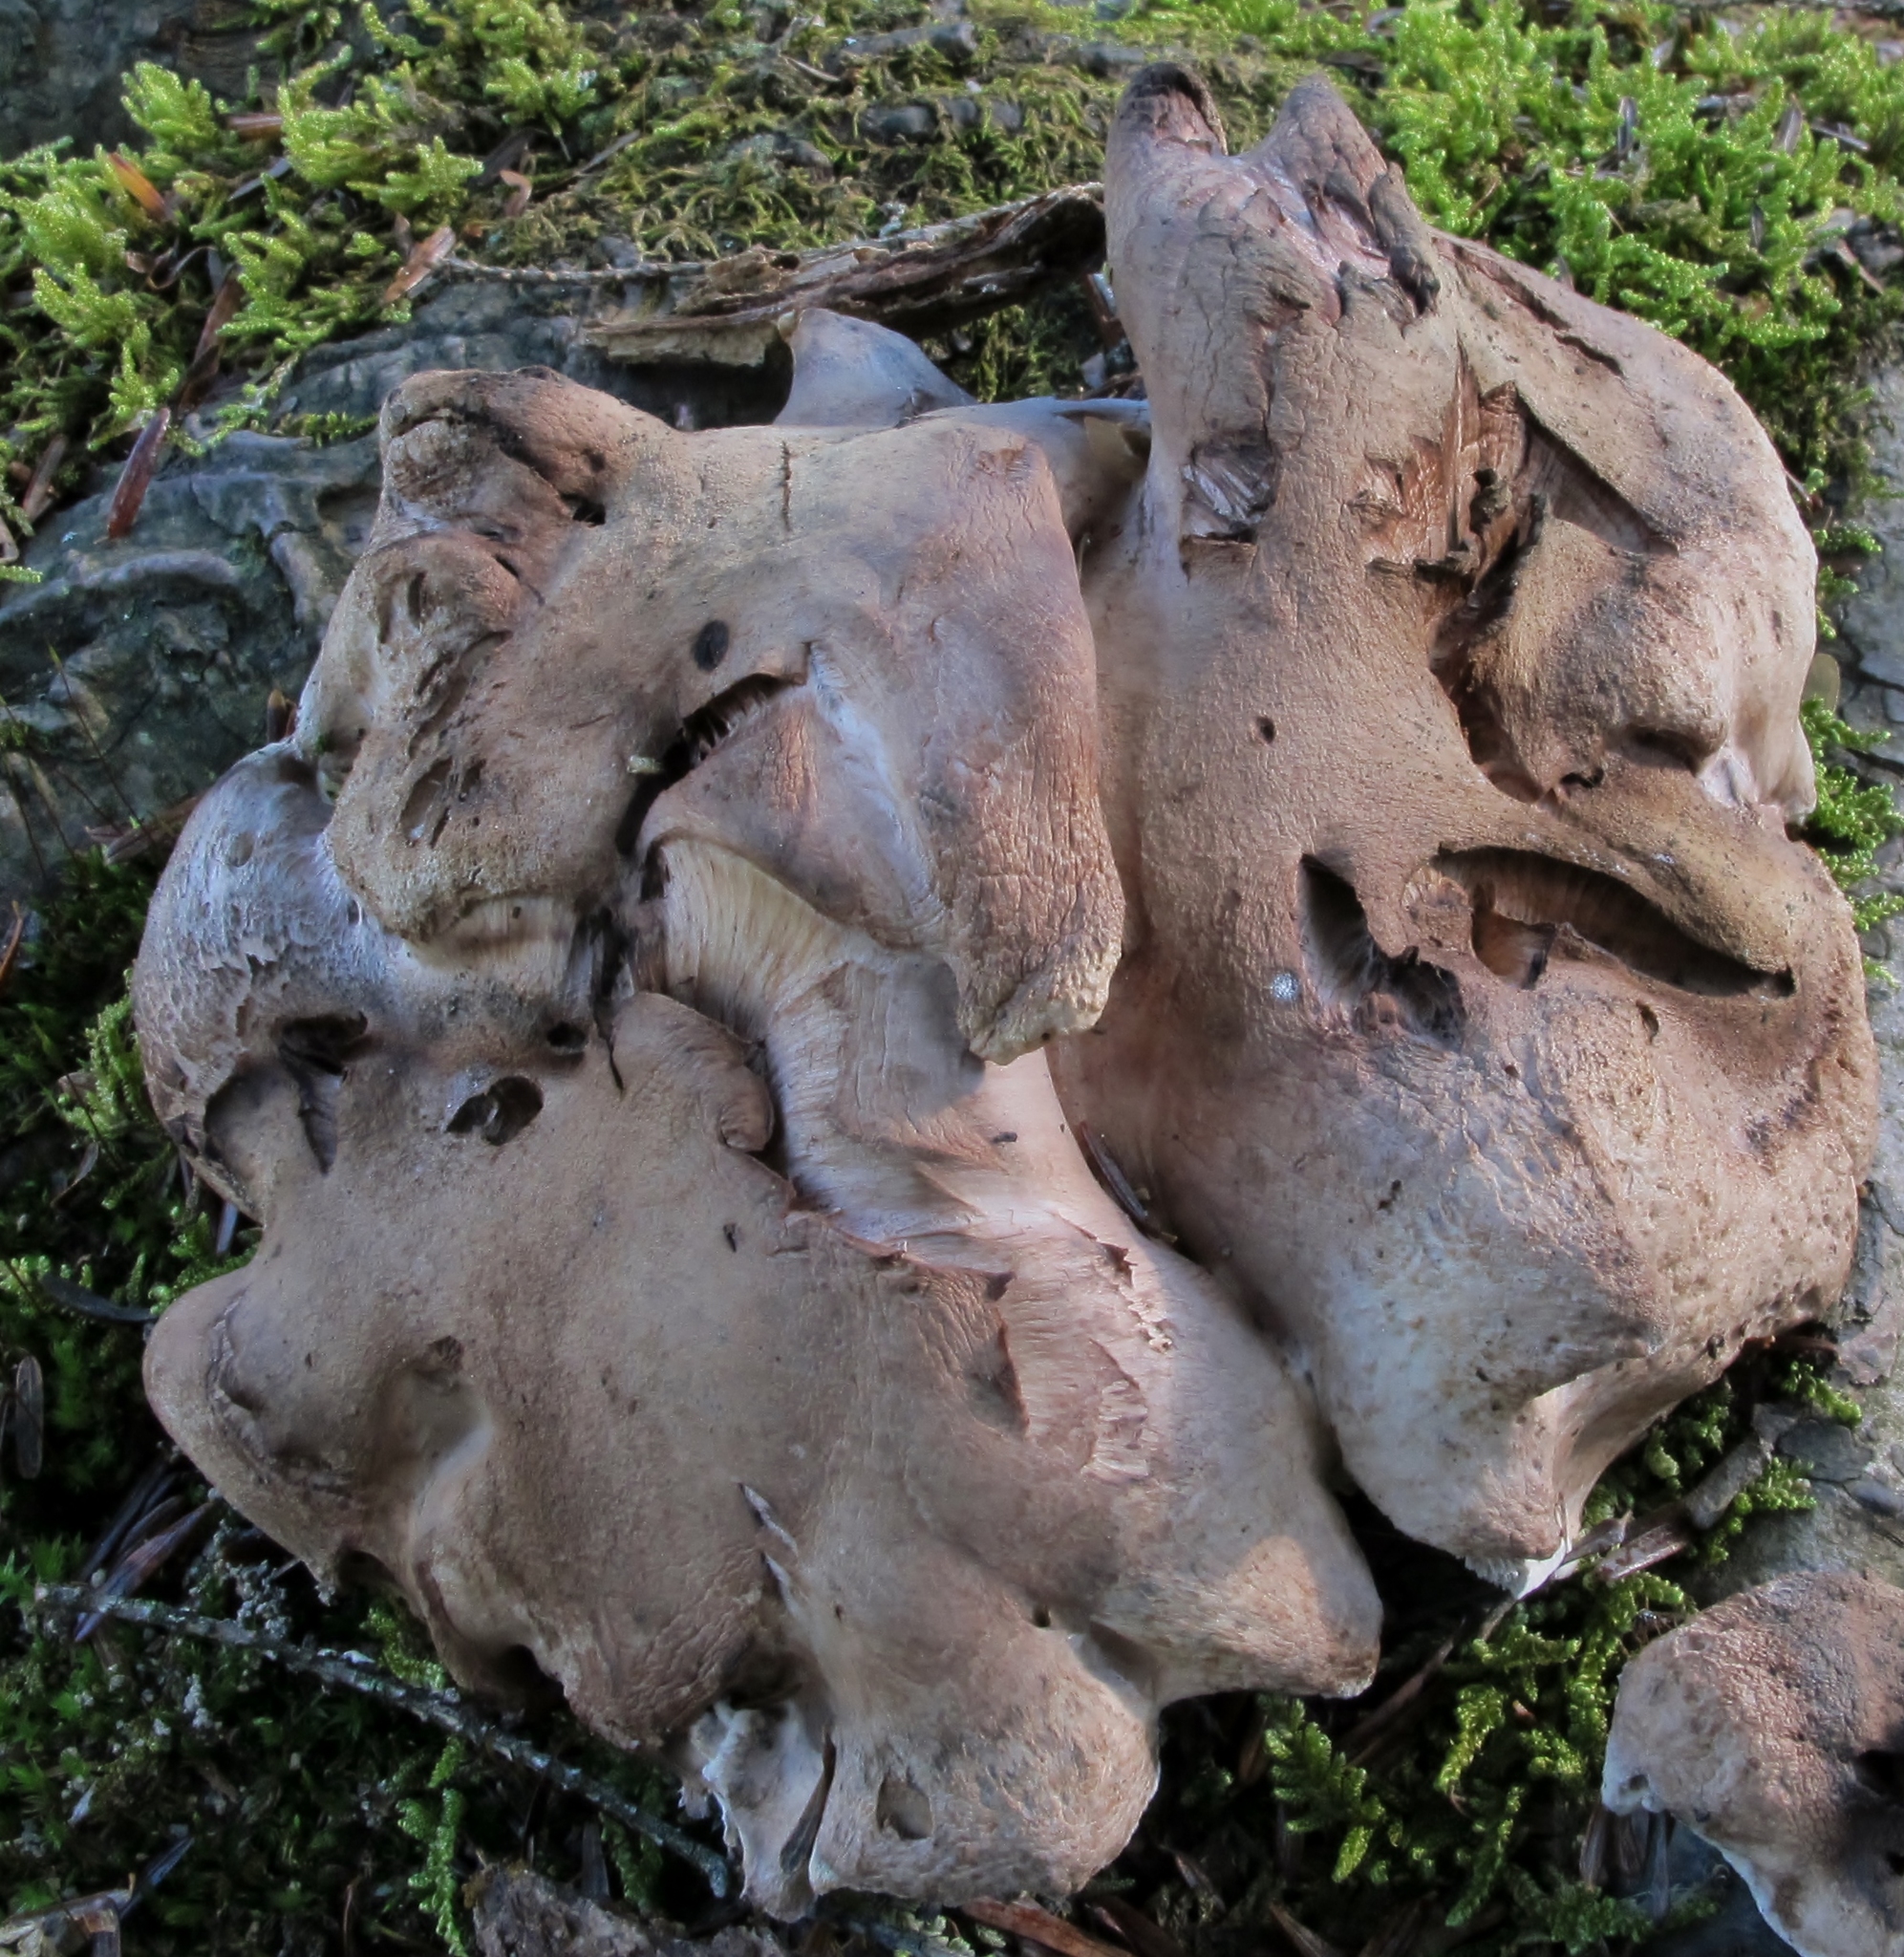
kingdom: Fungi
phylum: Basidiomycota
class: Agaricomycetes
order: Thelephorales
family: Thelephoraceae
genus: Phellodon
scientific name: Phellodon fuligineoalbus
